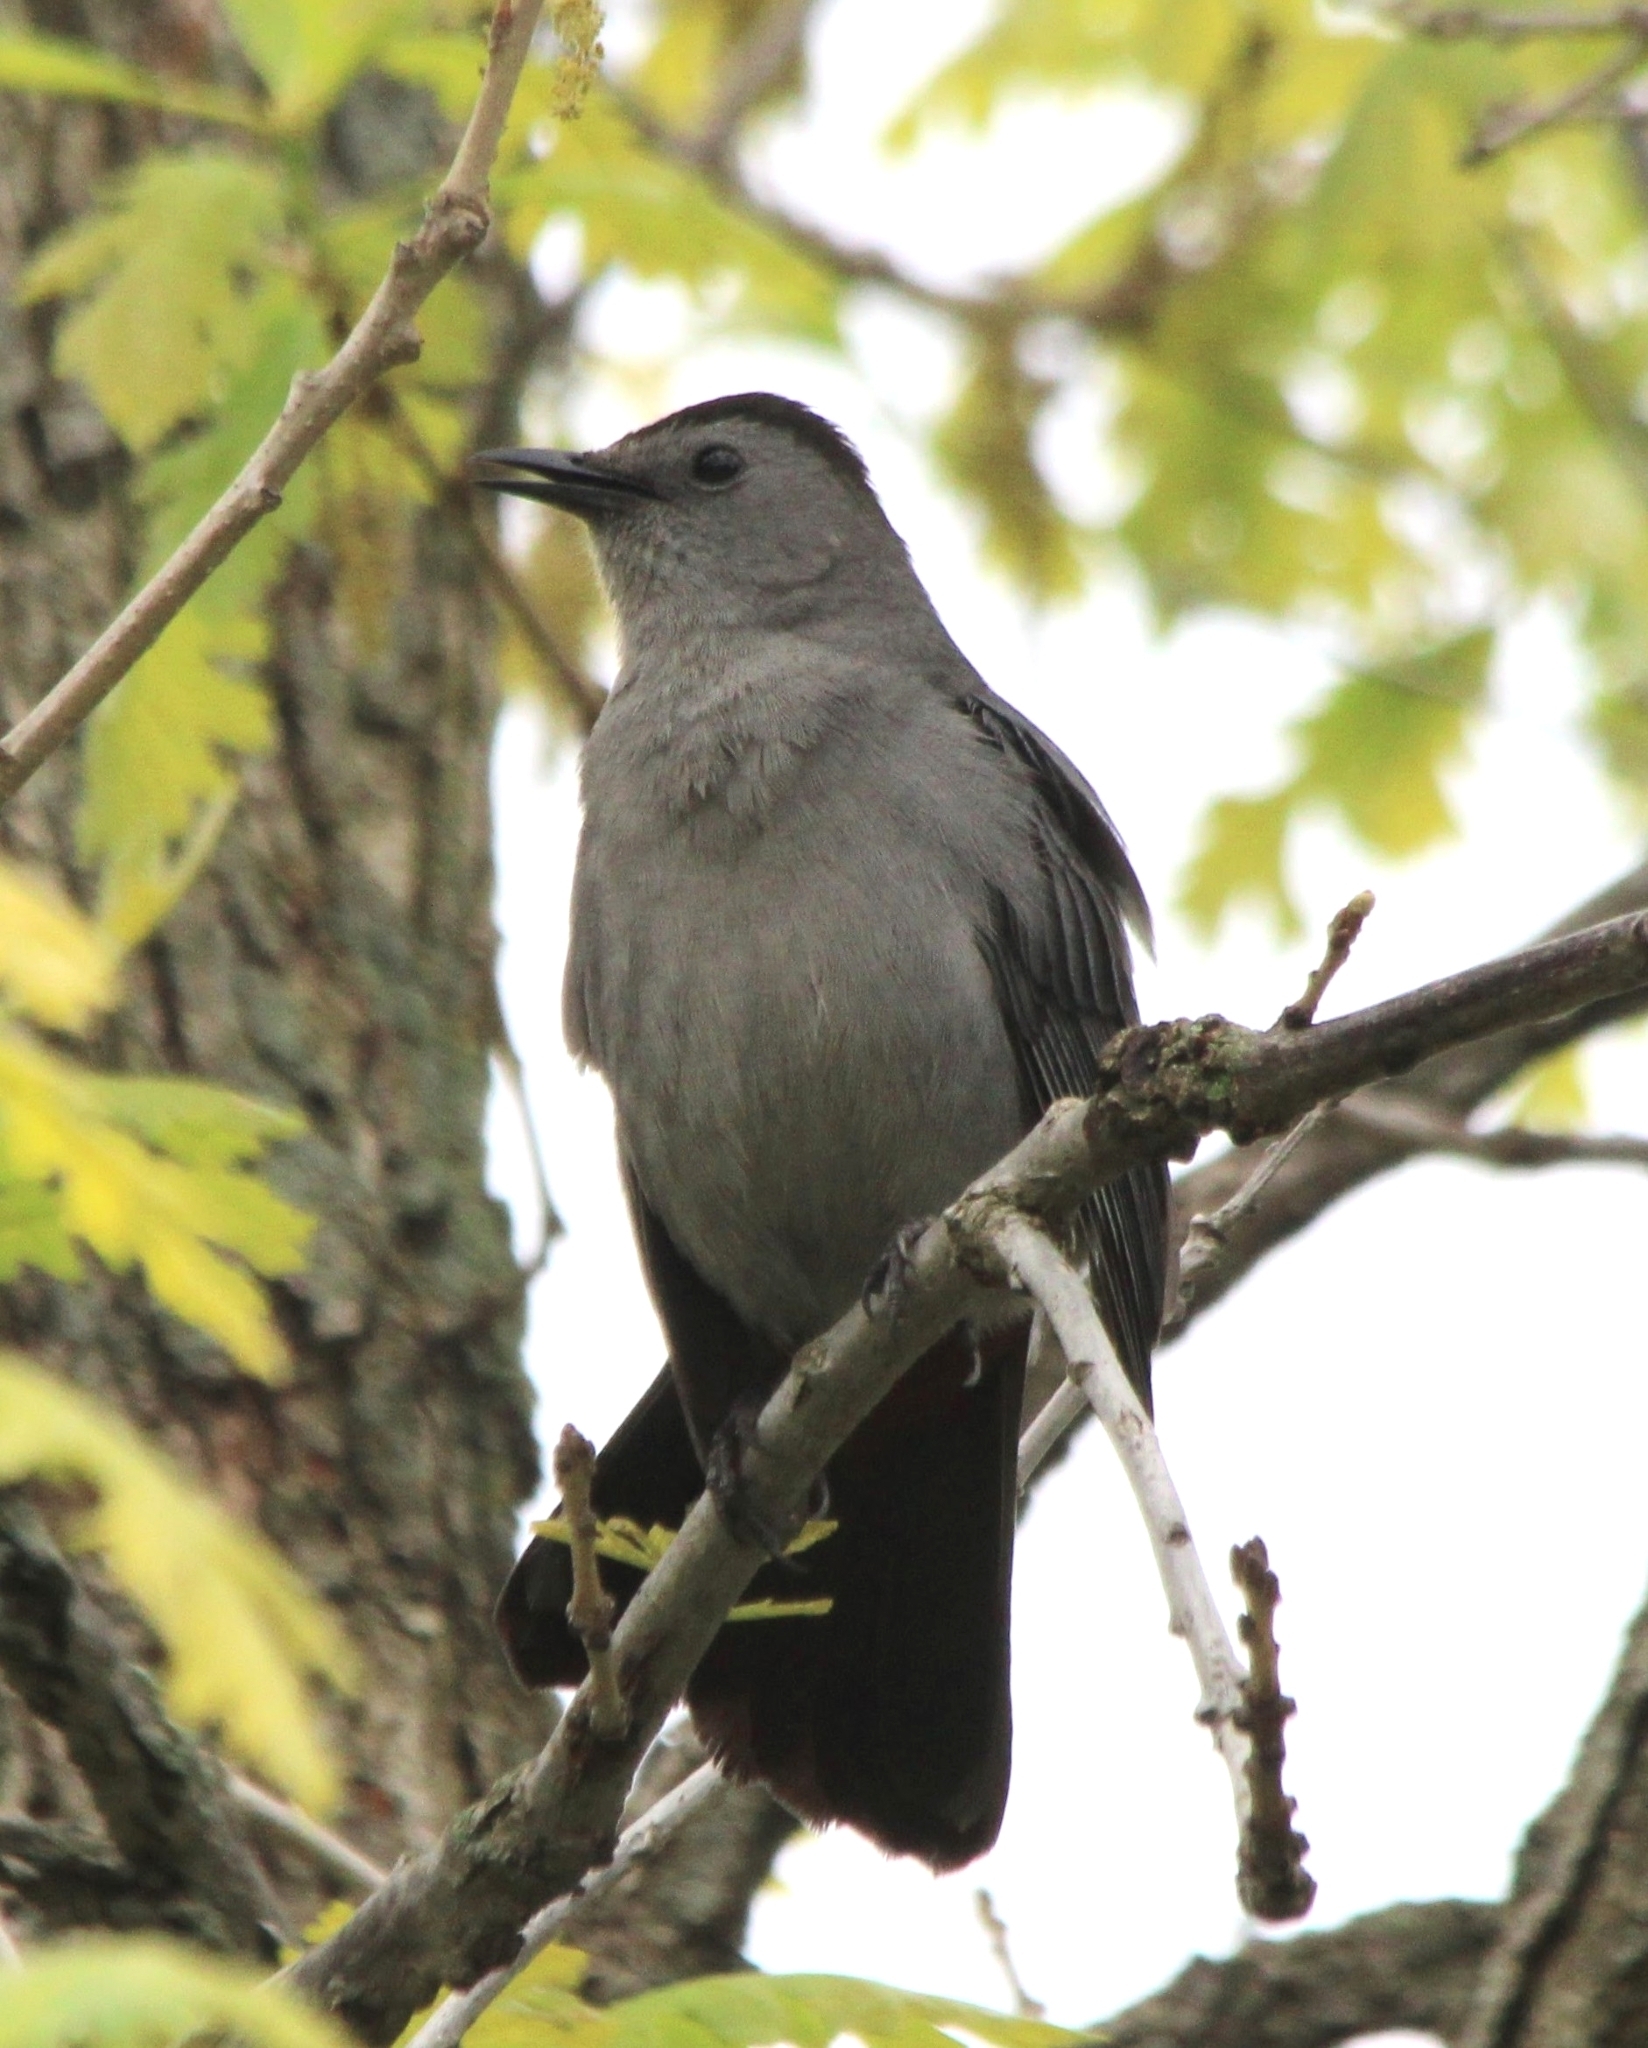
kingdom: Animalia
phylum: Chordata
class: Aves
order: Passeriformes
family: Mimidae
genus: Dumetella
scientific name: Dumetella carolinensis
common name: Gray catbird
